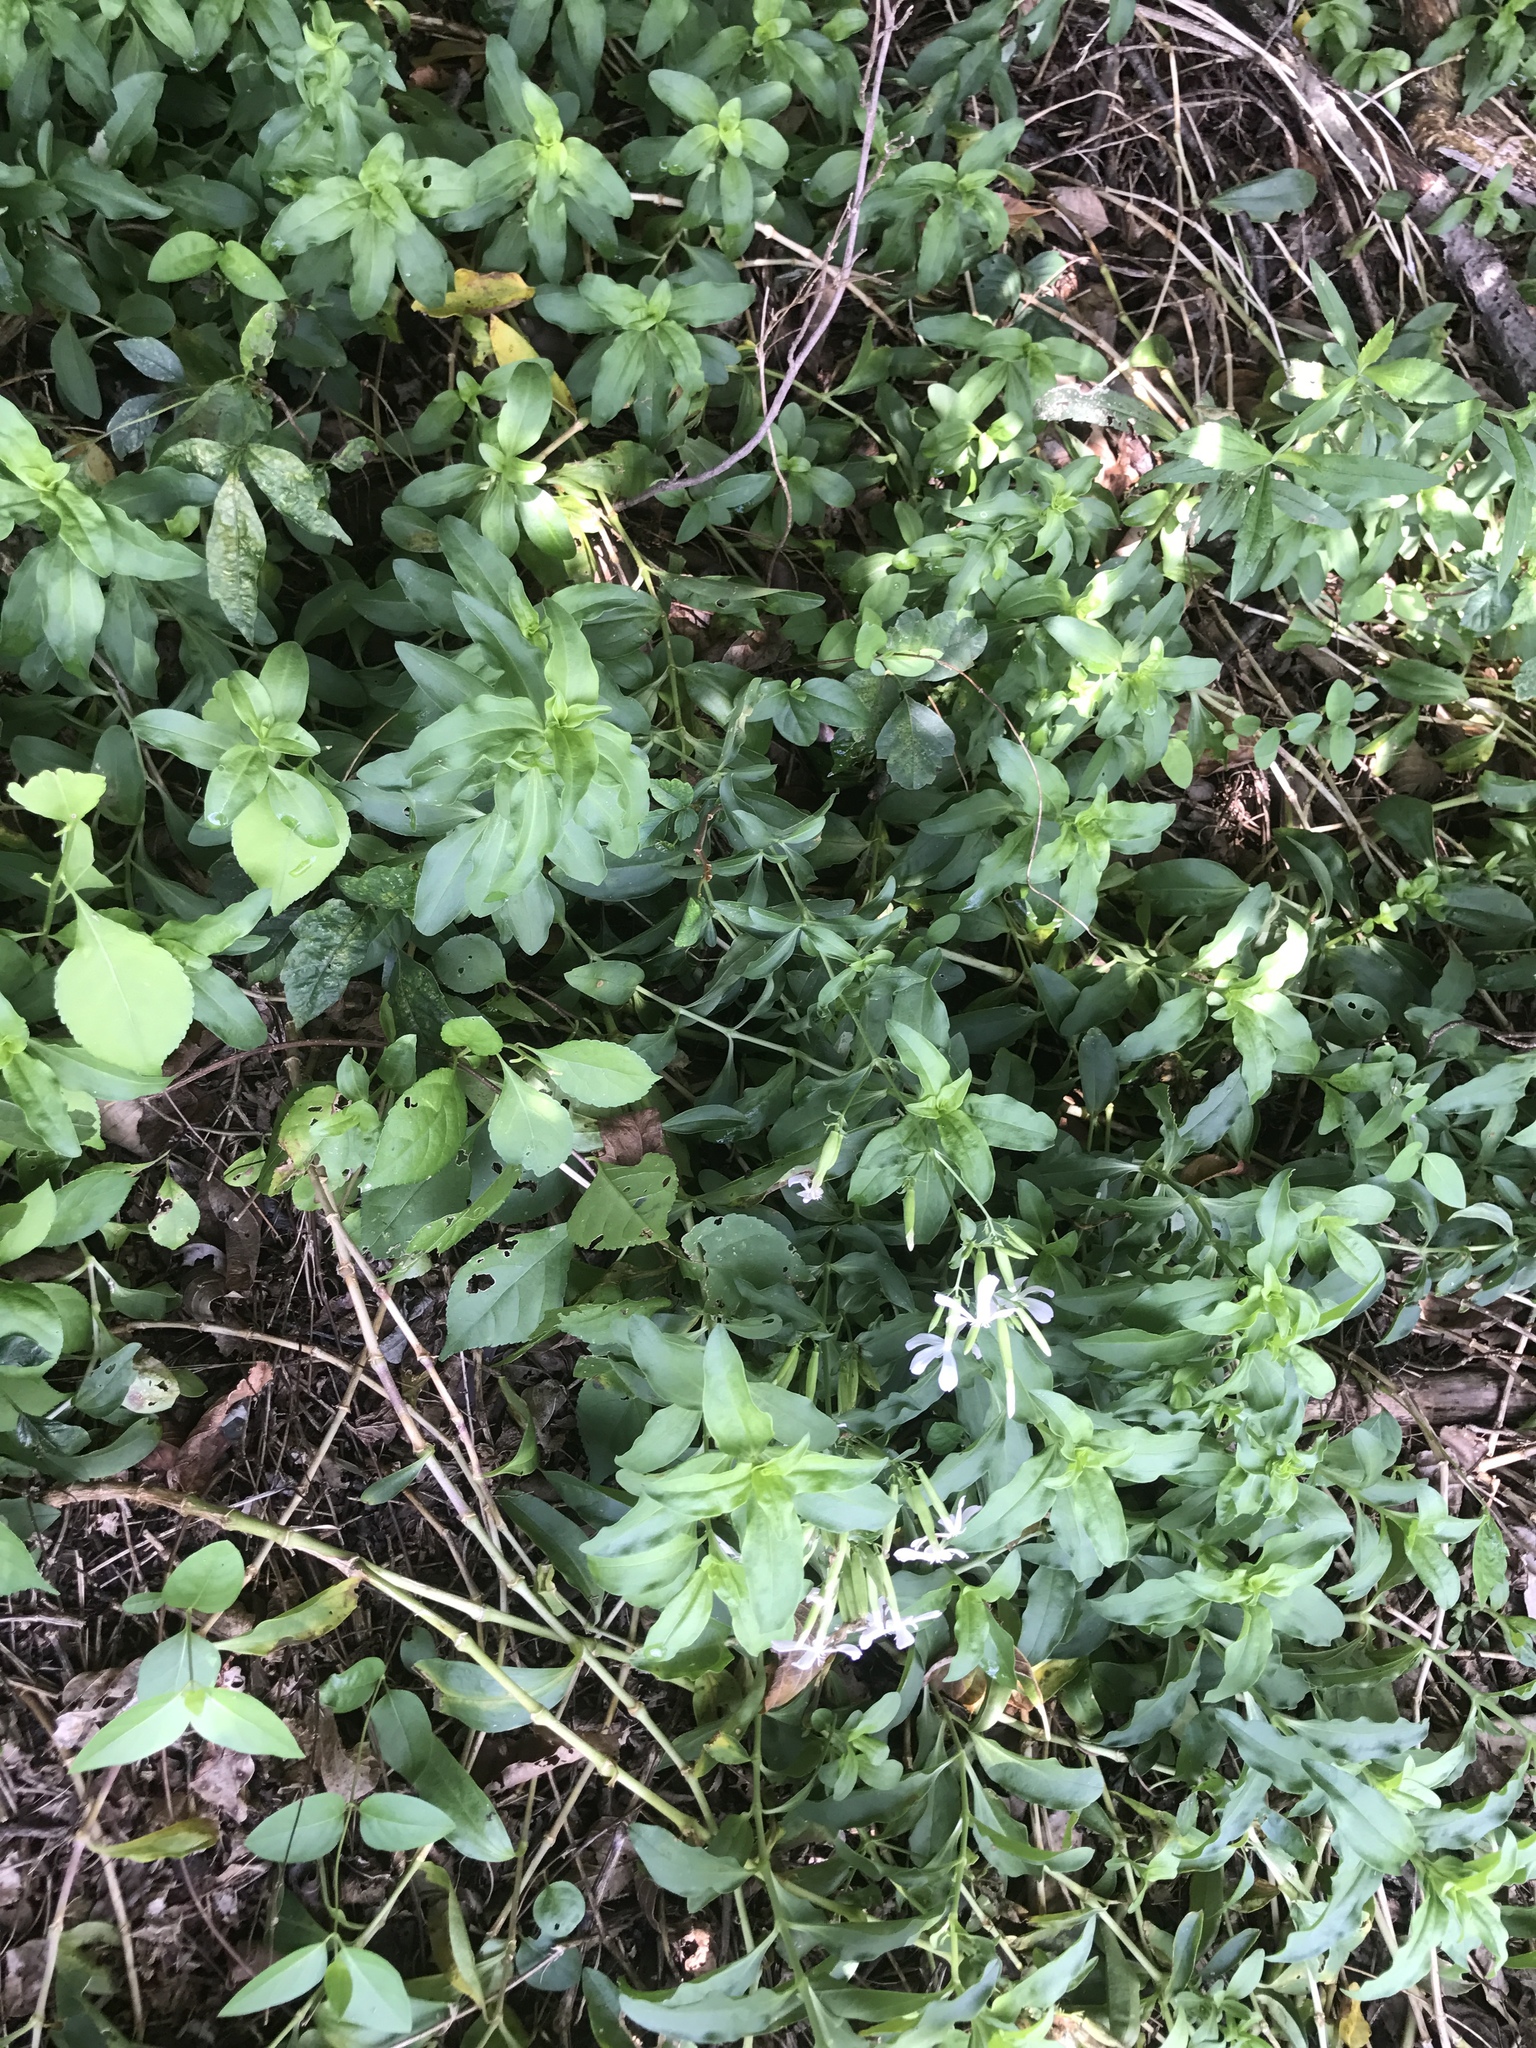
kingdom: Plantae
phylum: Tracheophyta
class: Magnoliopsida
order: Caryophyllales
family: Caryophyllaceae
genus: Saponaria
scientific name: Saponaria officinalis
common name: Soapwort
